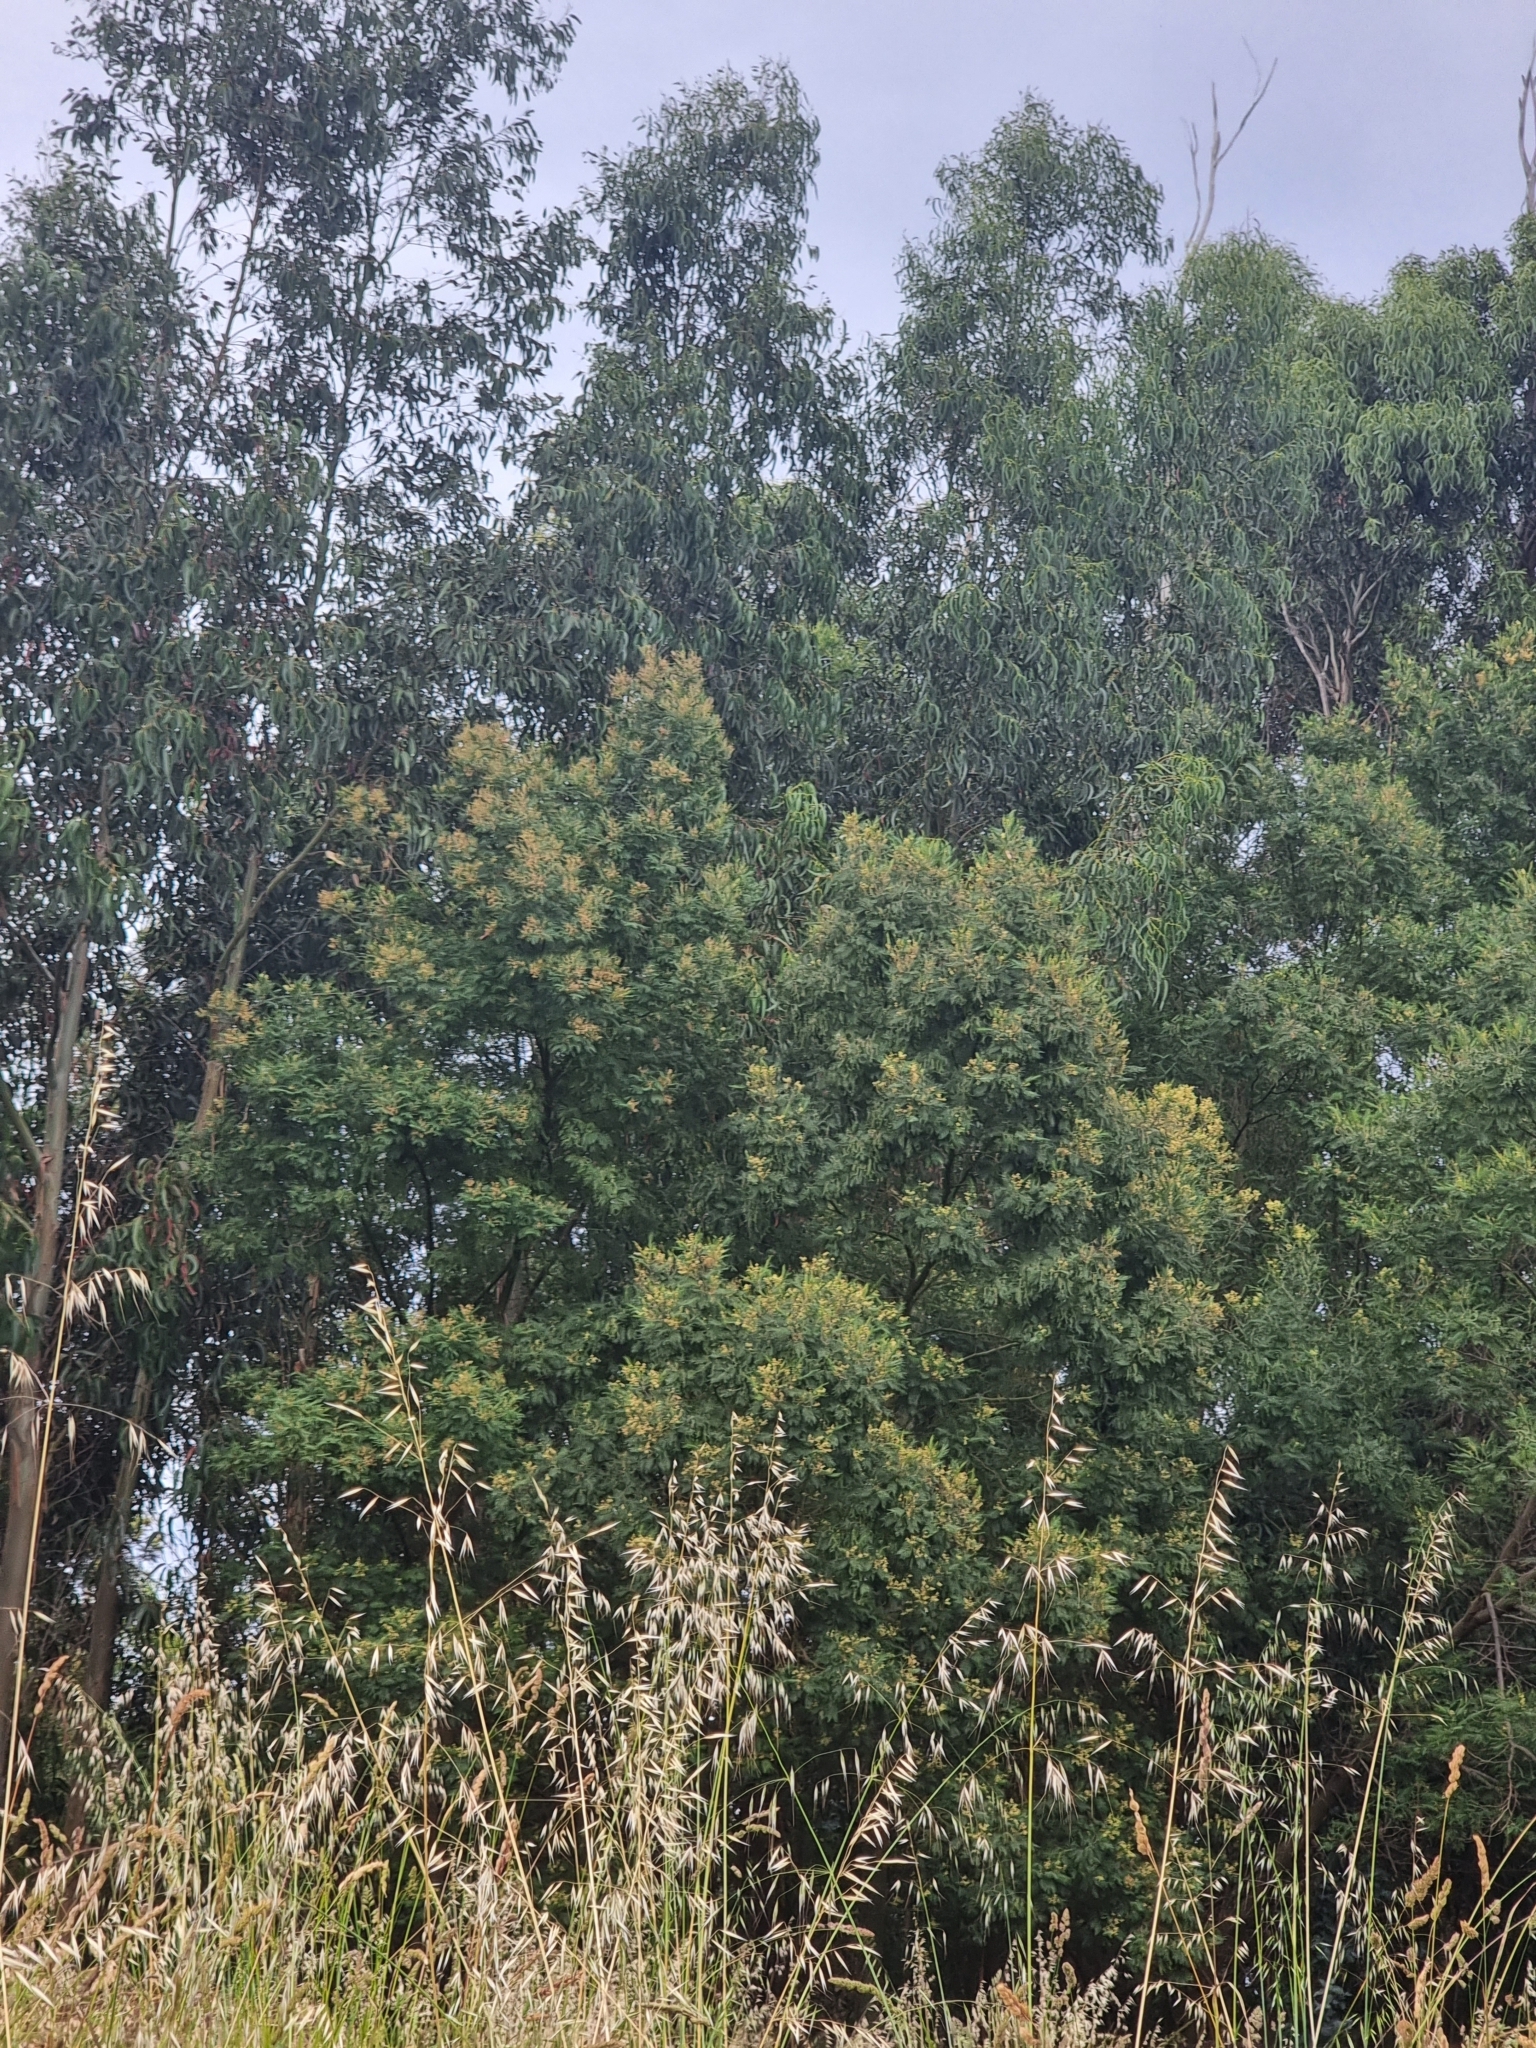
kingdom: Plantae
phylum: Tracheophyta
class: Magnoliopsida
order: Fabales
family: Fabaceae
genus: Acacia
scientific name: Acacia mearnsii
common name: Black wattle
